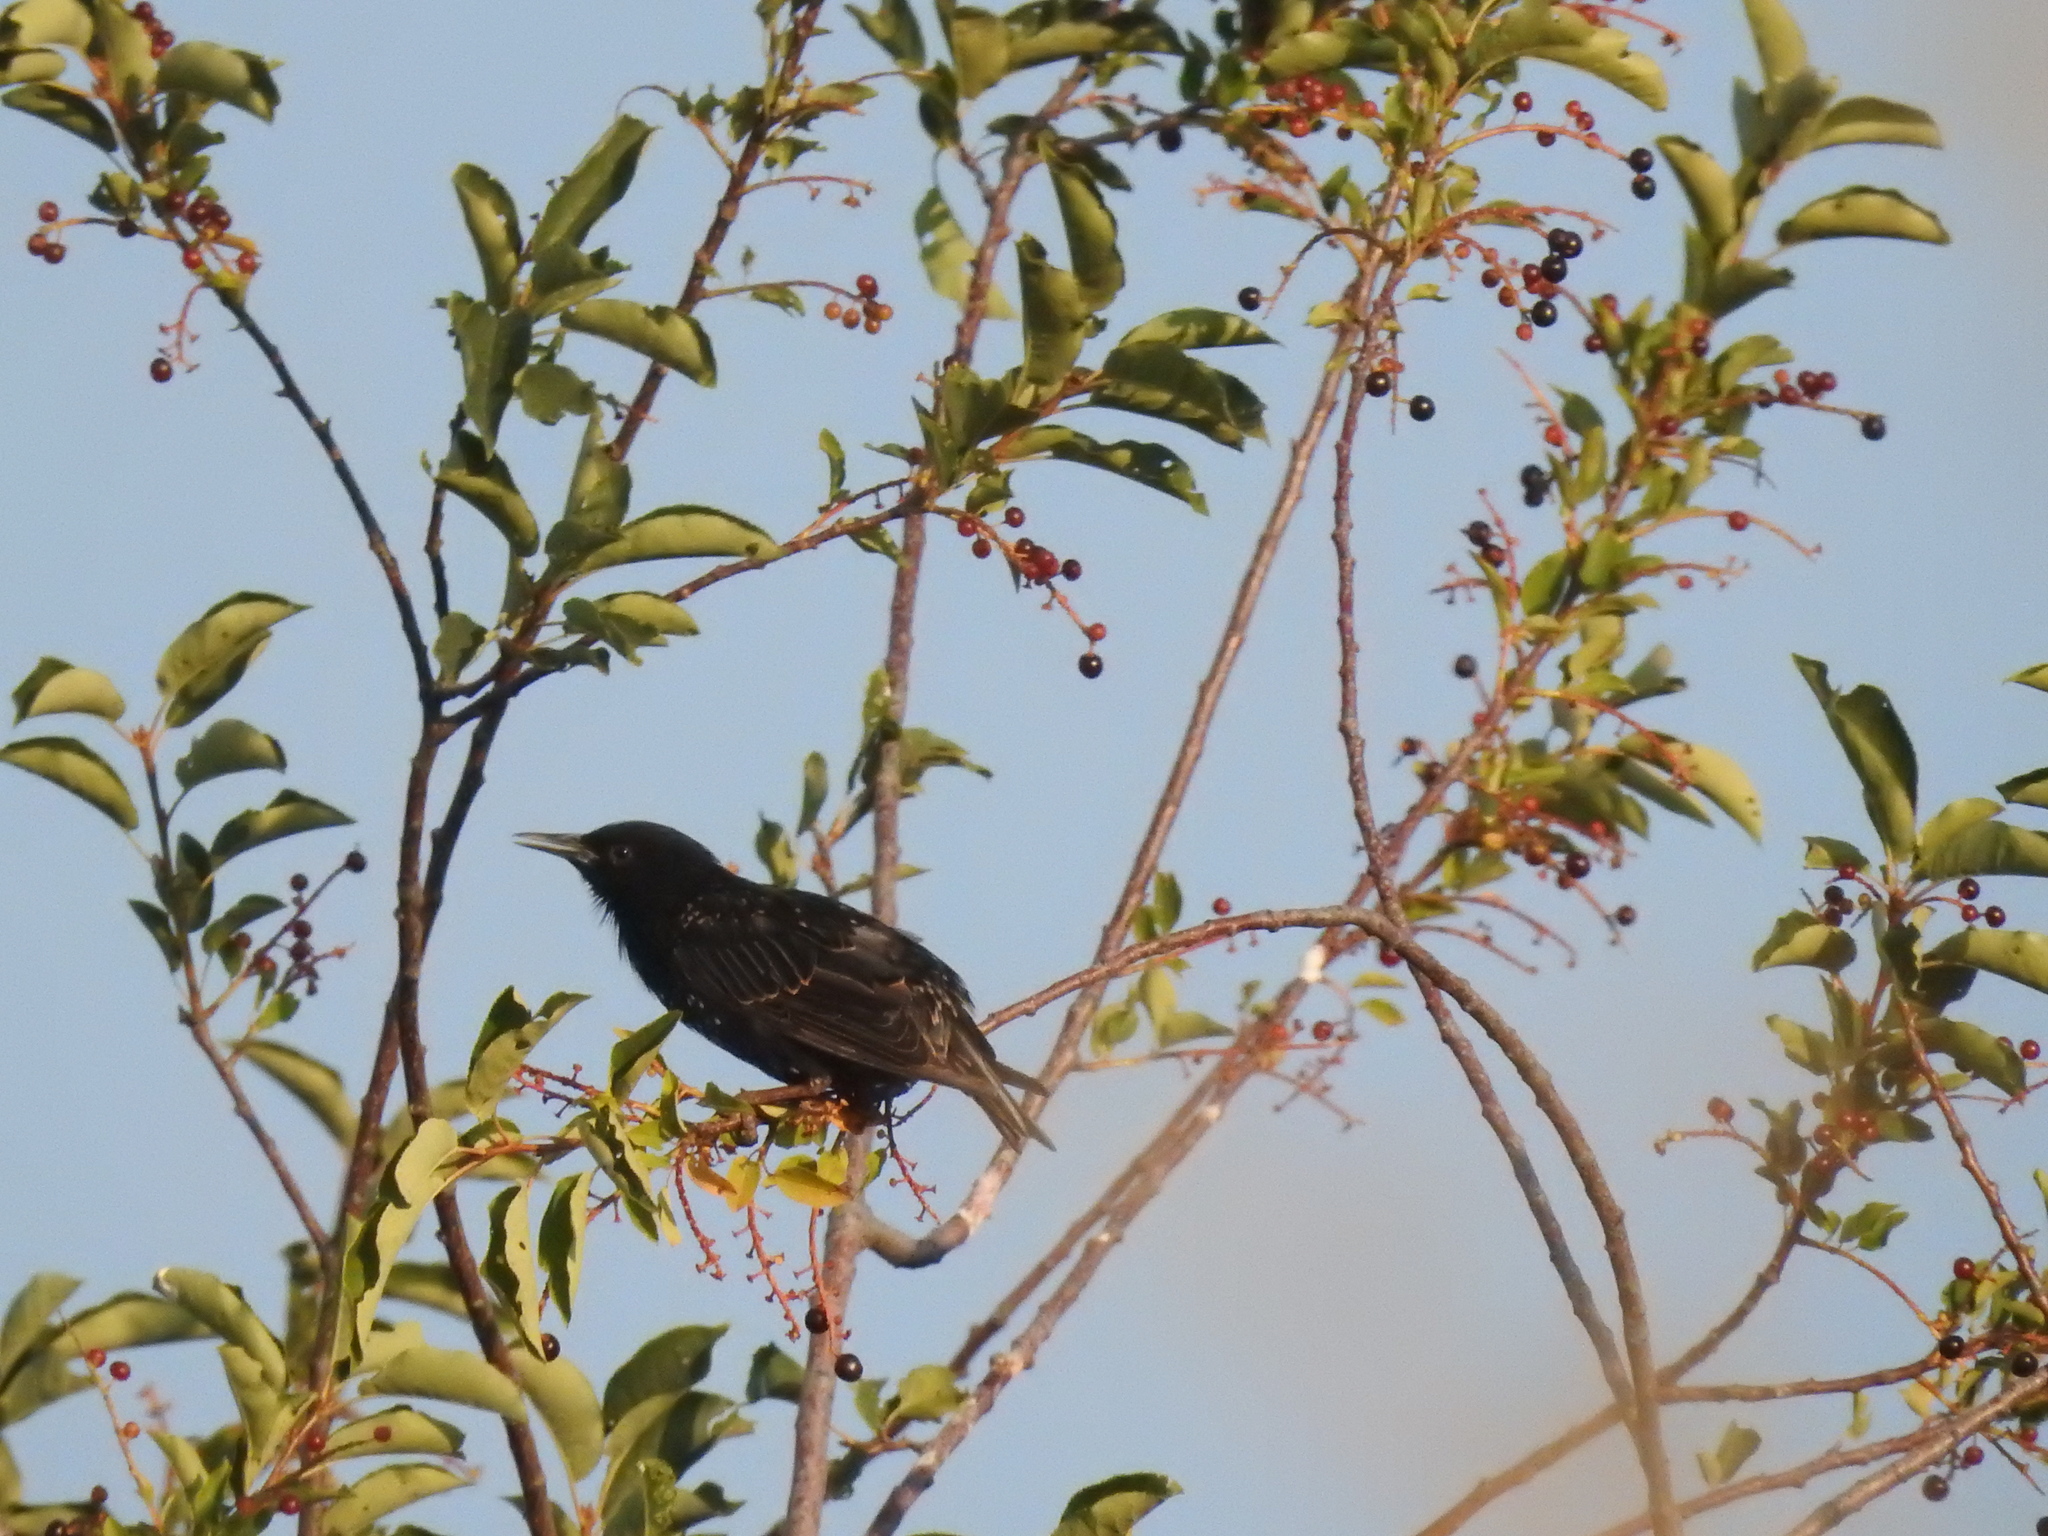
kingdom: Animalia
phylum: Chordata
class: Aves
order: Passeriformes
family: Sturnidae
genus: Sturnus
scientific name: Sturnus vulgaris
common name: Common starling
